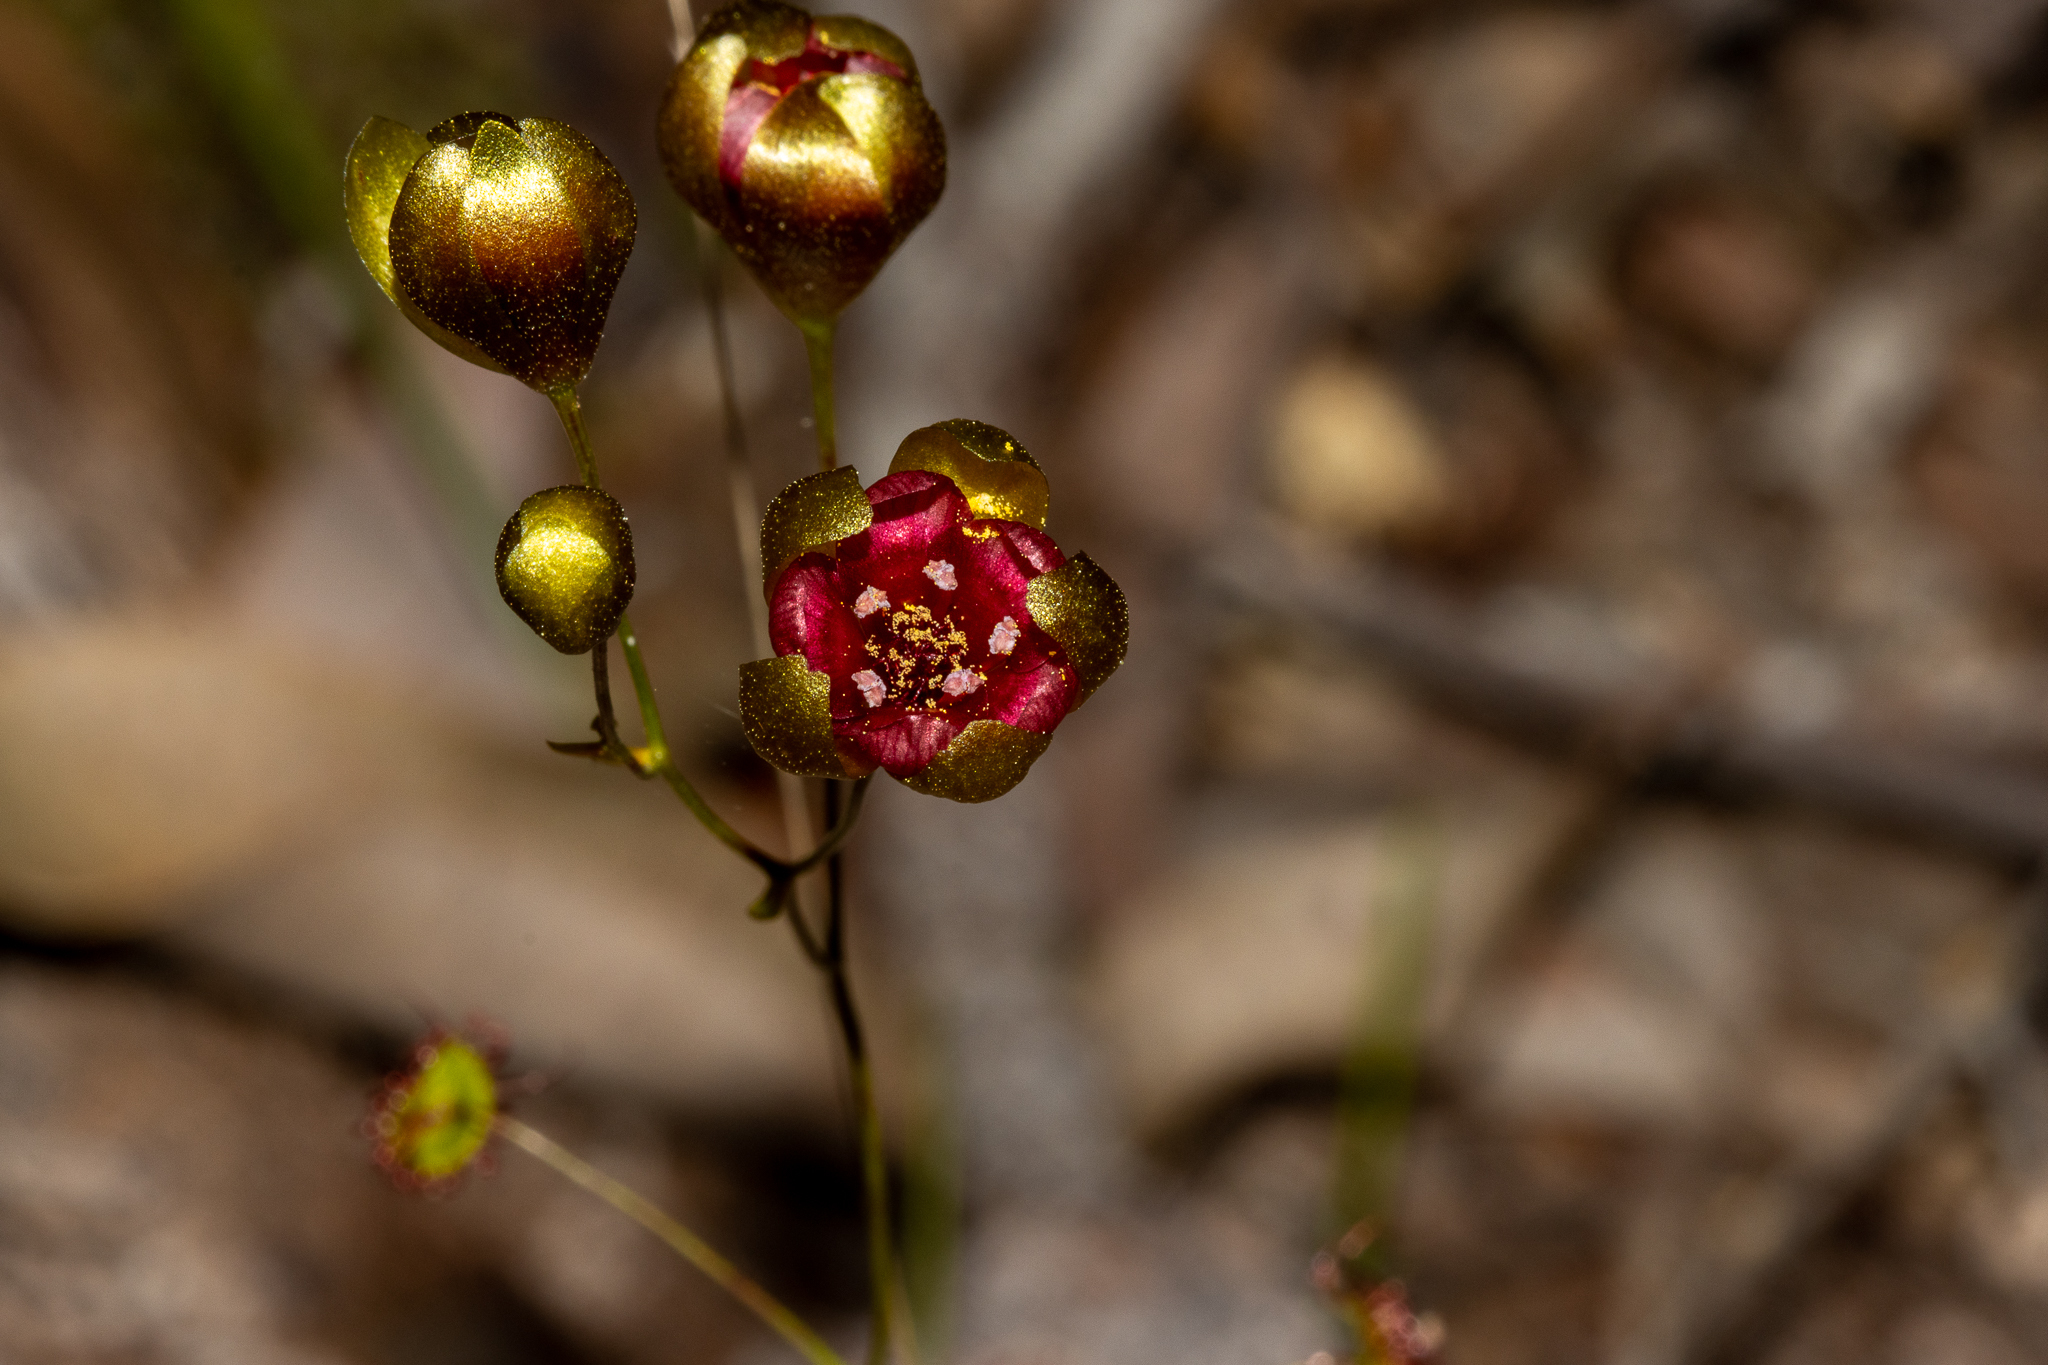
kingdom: Plantae
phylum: Tracheophyta
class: Magnoliopsida
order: Caryophyllales
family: Droseraceae
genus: Drosera
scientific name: Drosera microphylla
